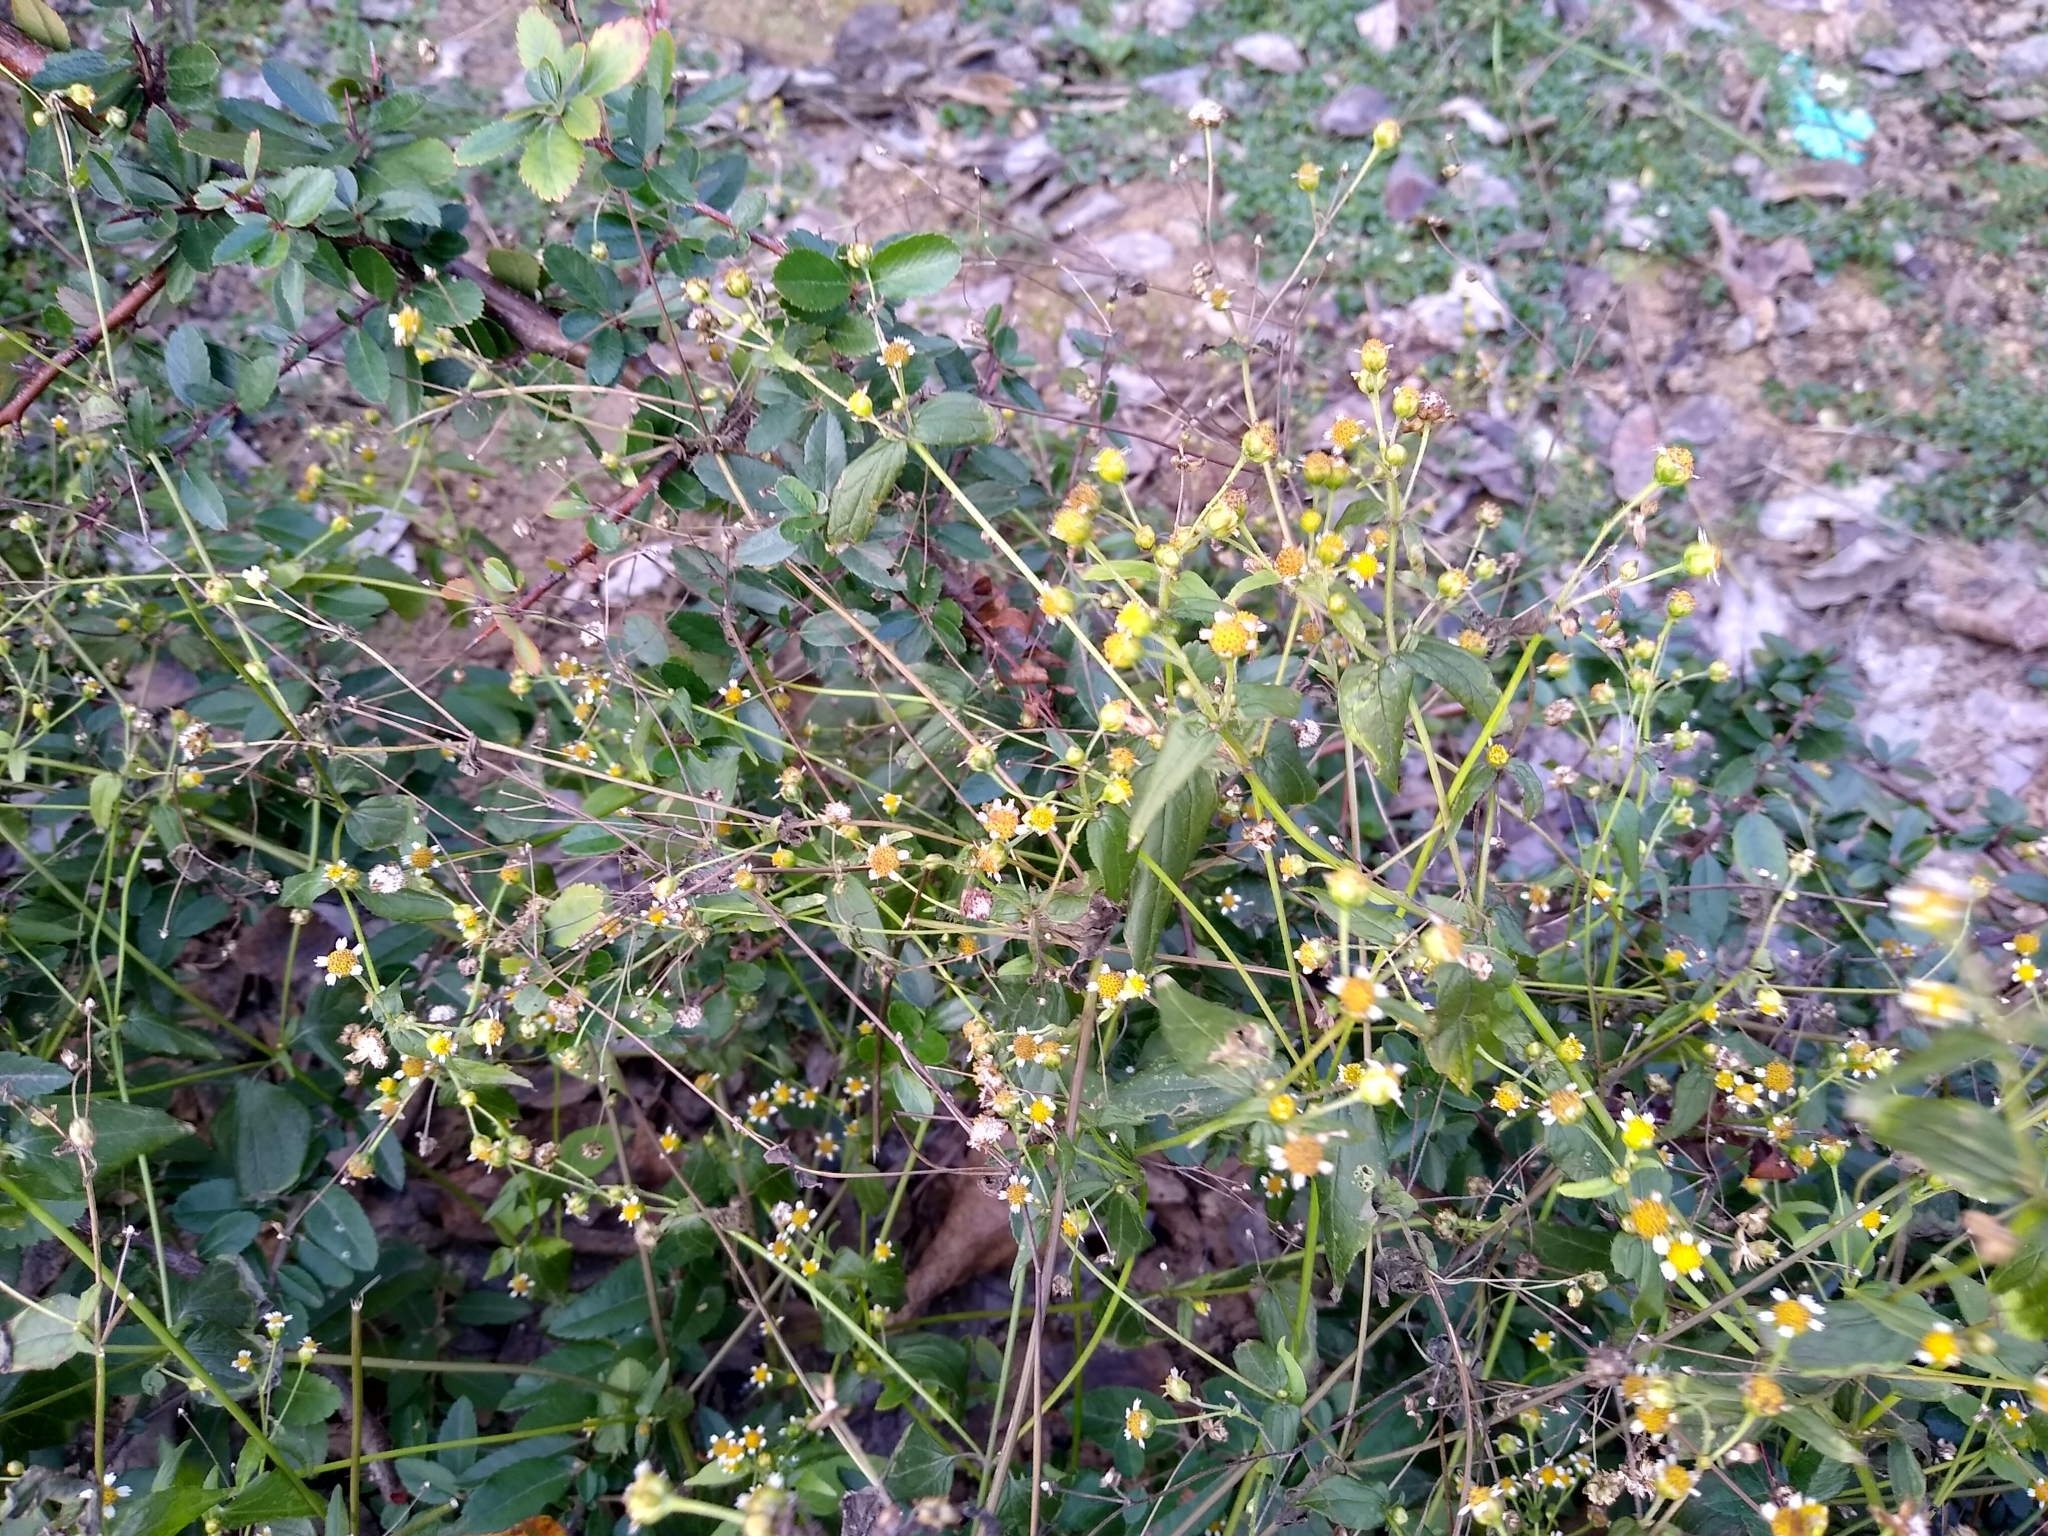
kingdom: Plantae
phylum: Tracheophyta
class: Magnoliopsida
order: Asterales
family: Asteraceae
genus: Galinsoga
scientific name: Galinsoga parviflora
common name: Gallant soldier
